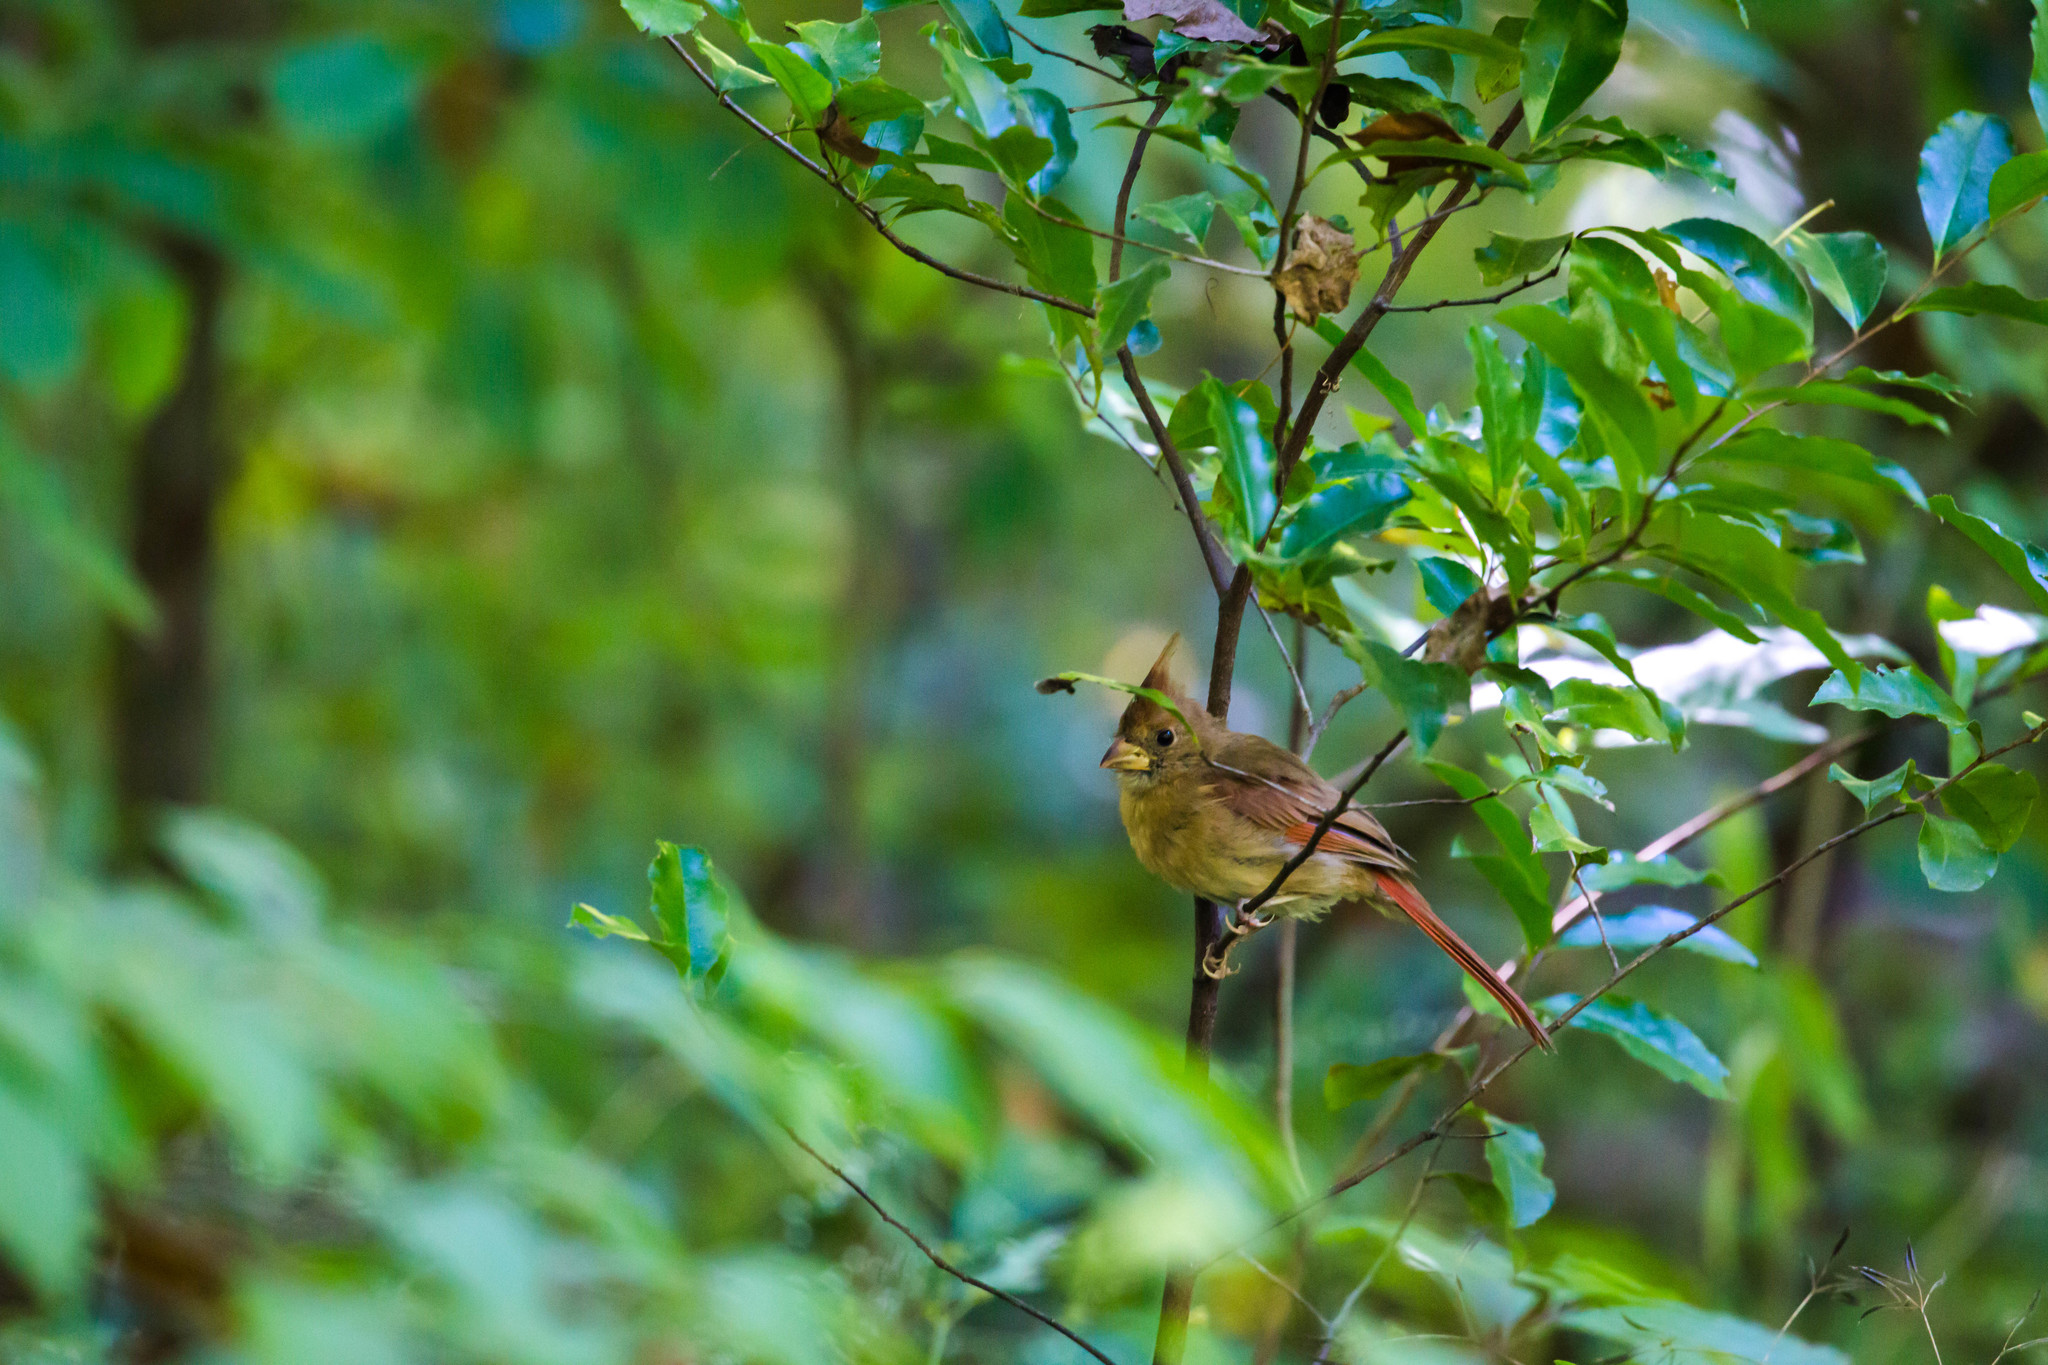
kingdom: Animalia
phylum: Chordata
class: Aves
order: Passeriformes
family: Cardinalidae
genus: Cardinalis
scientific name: Cardinalis cardinalis
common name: Northern cardinal
